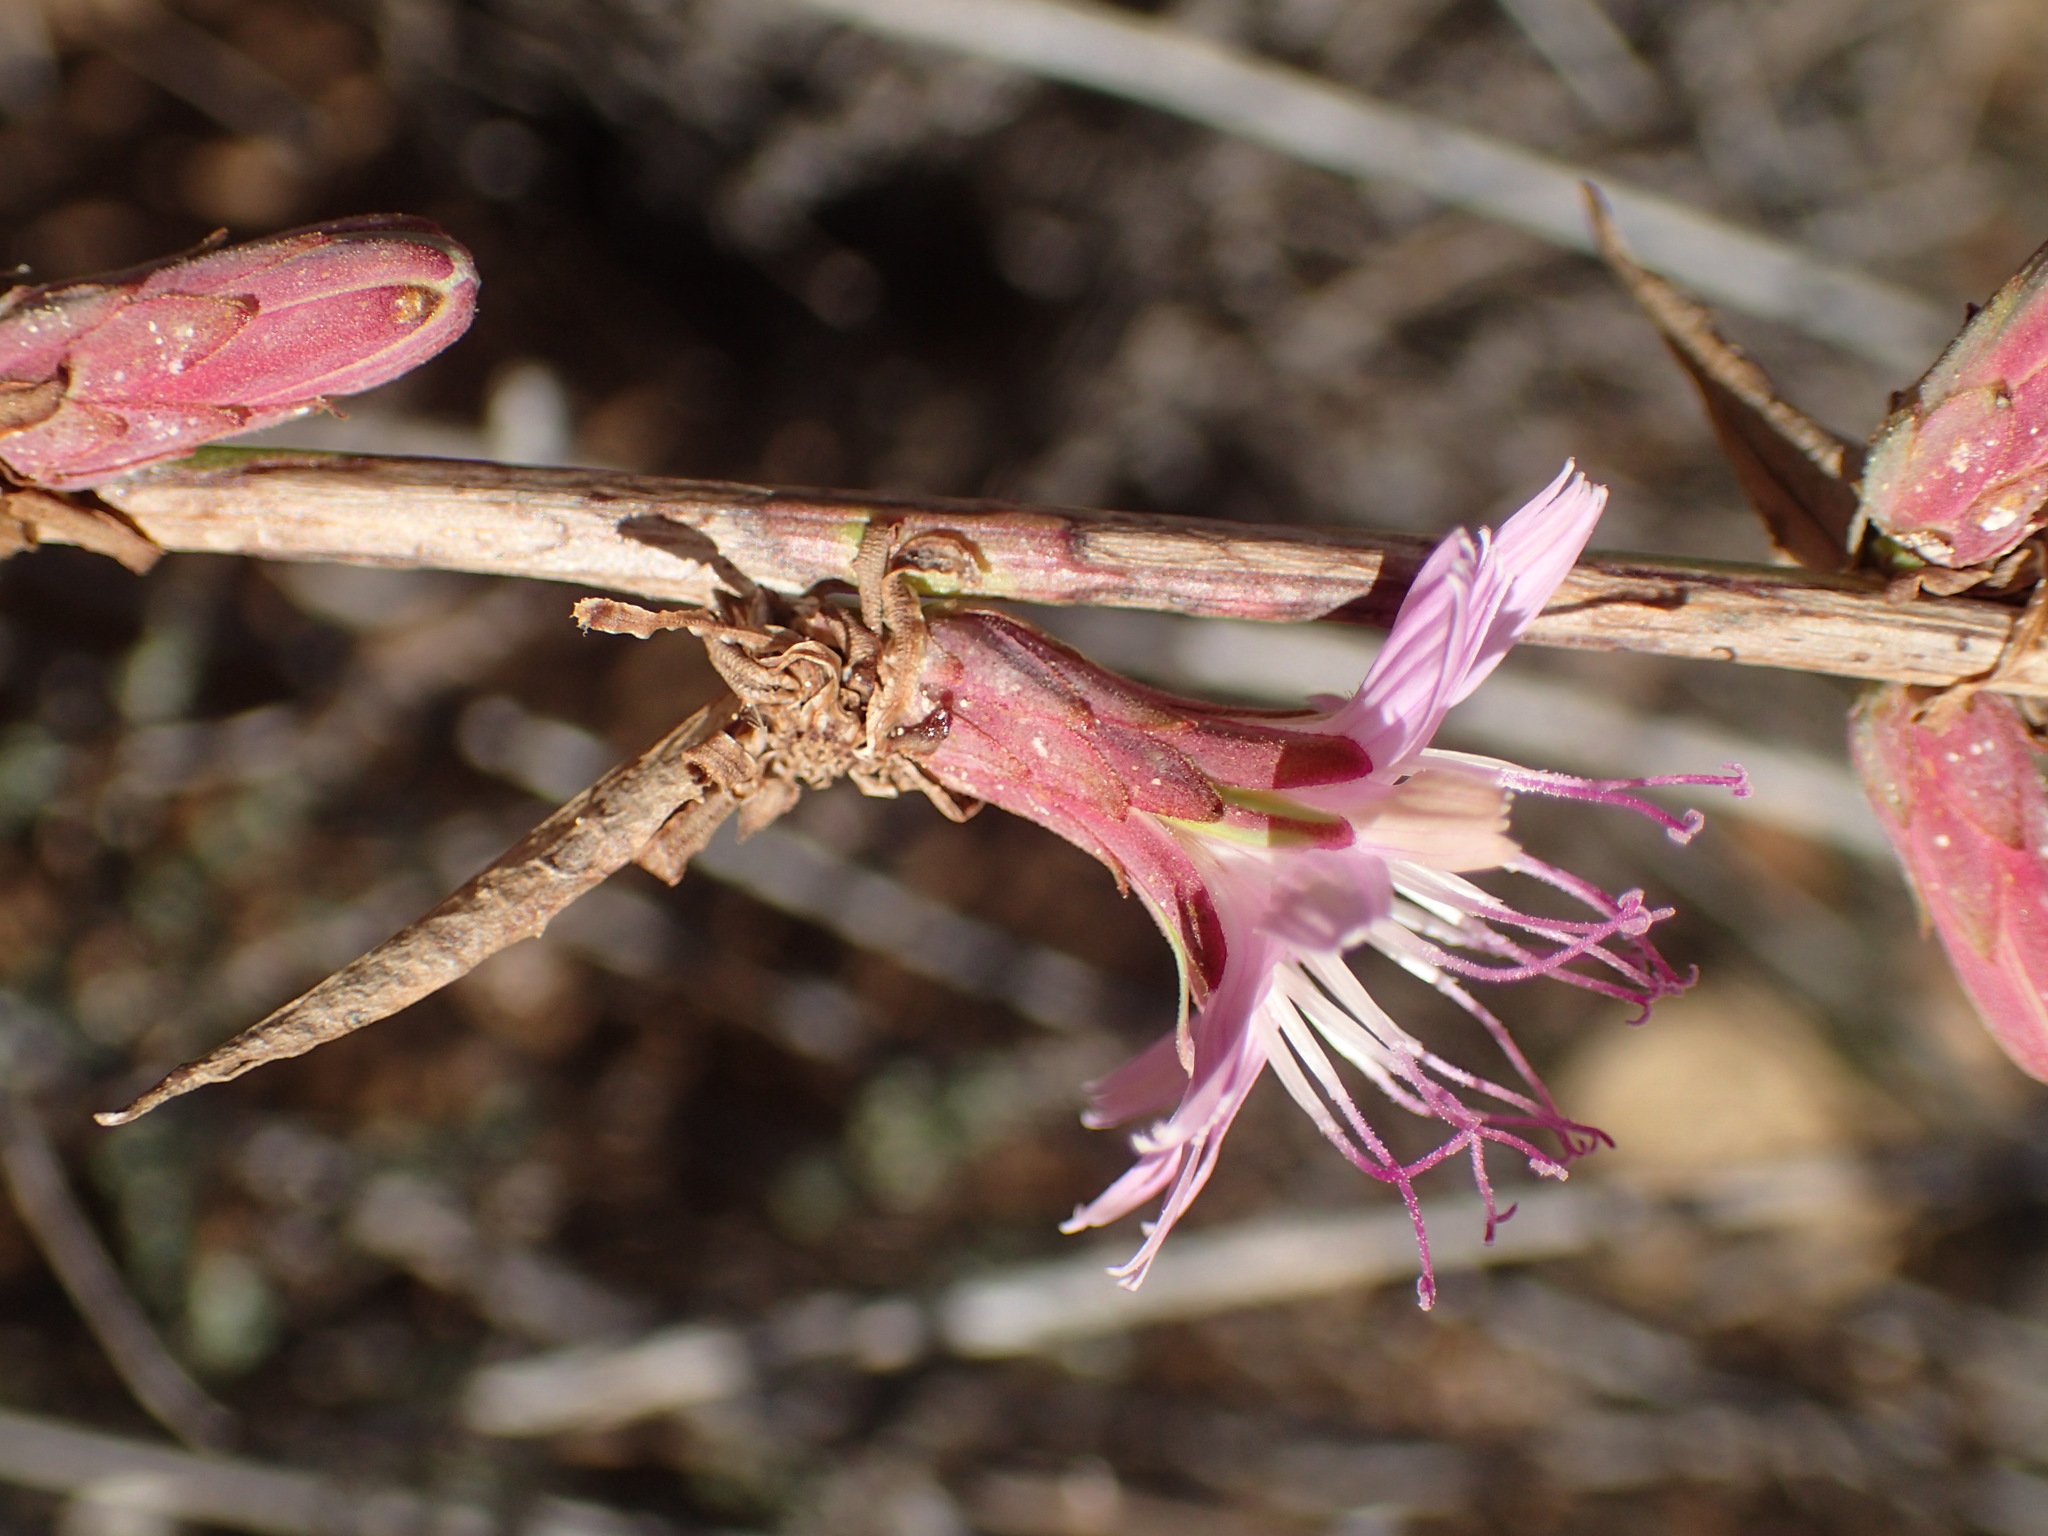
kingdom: Plantae
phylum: Tracheophyta
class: Magnoliopsida
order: Asterales
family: Asteraceae
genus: Stephanomeria
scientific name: Stephanomeria cichoriacea
